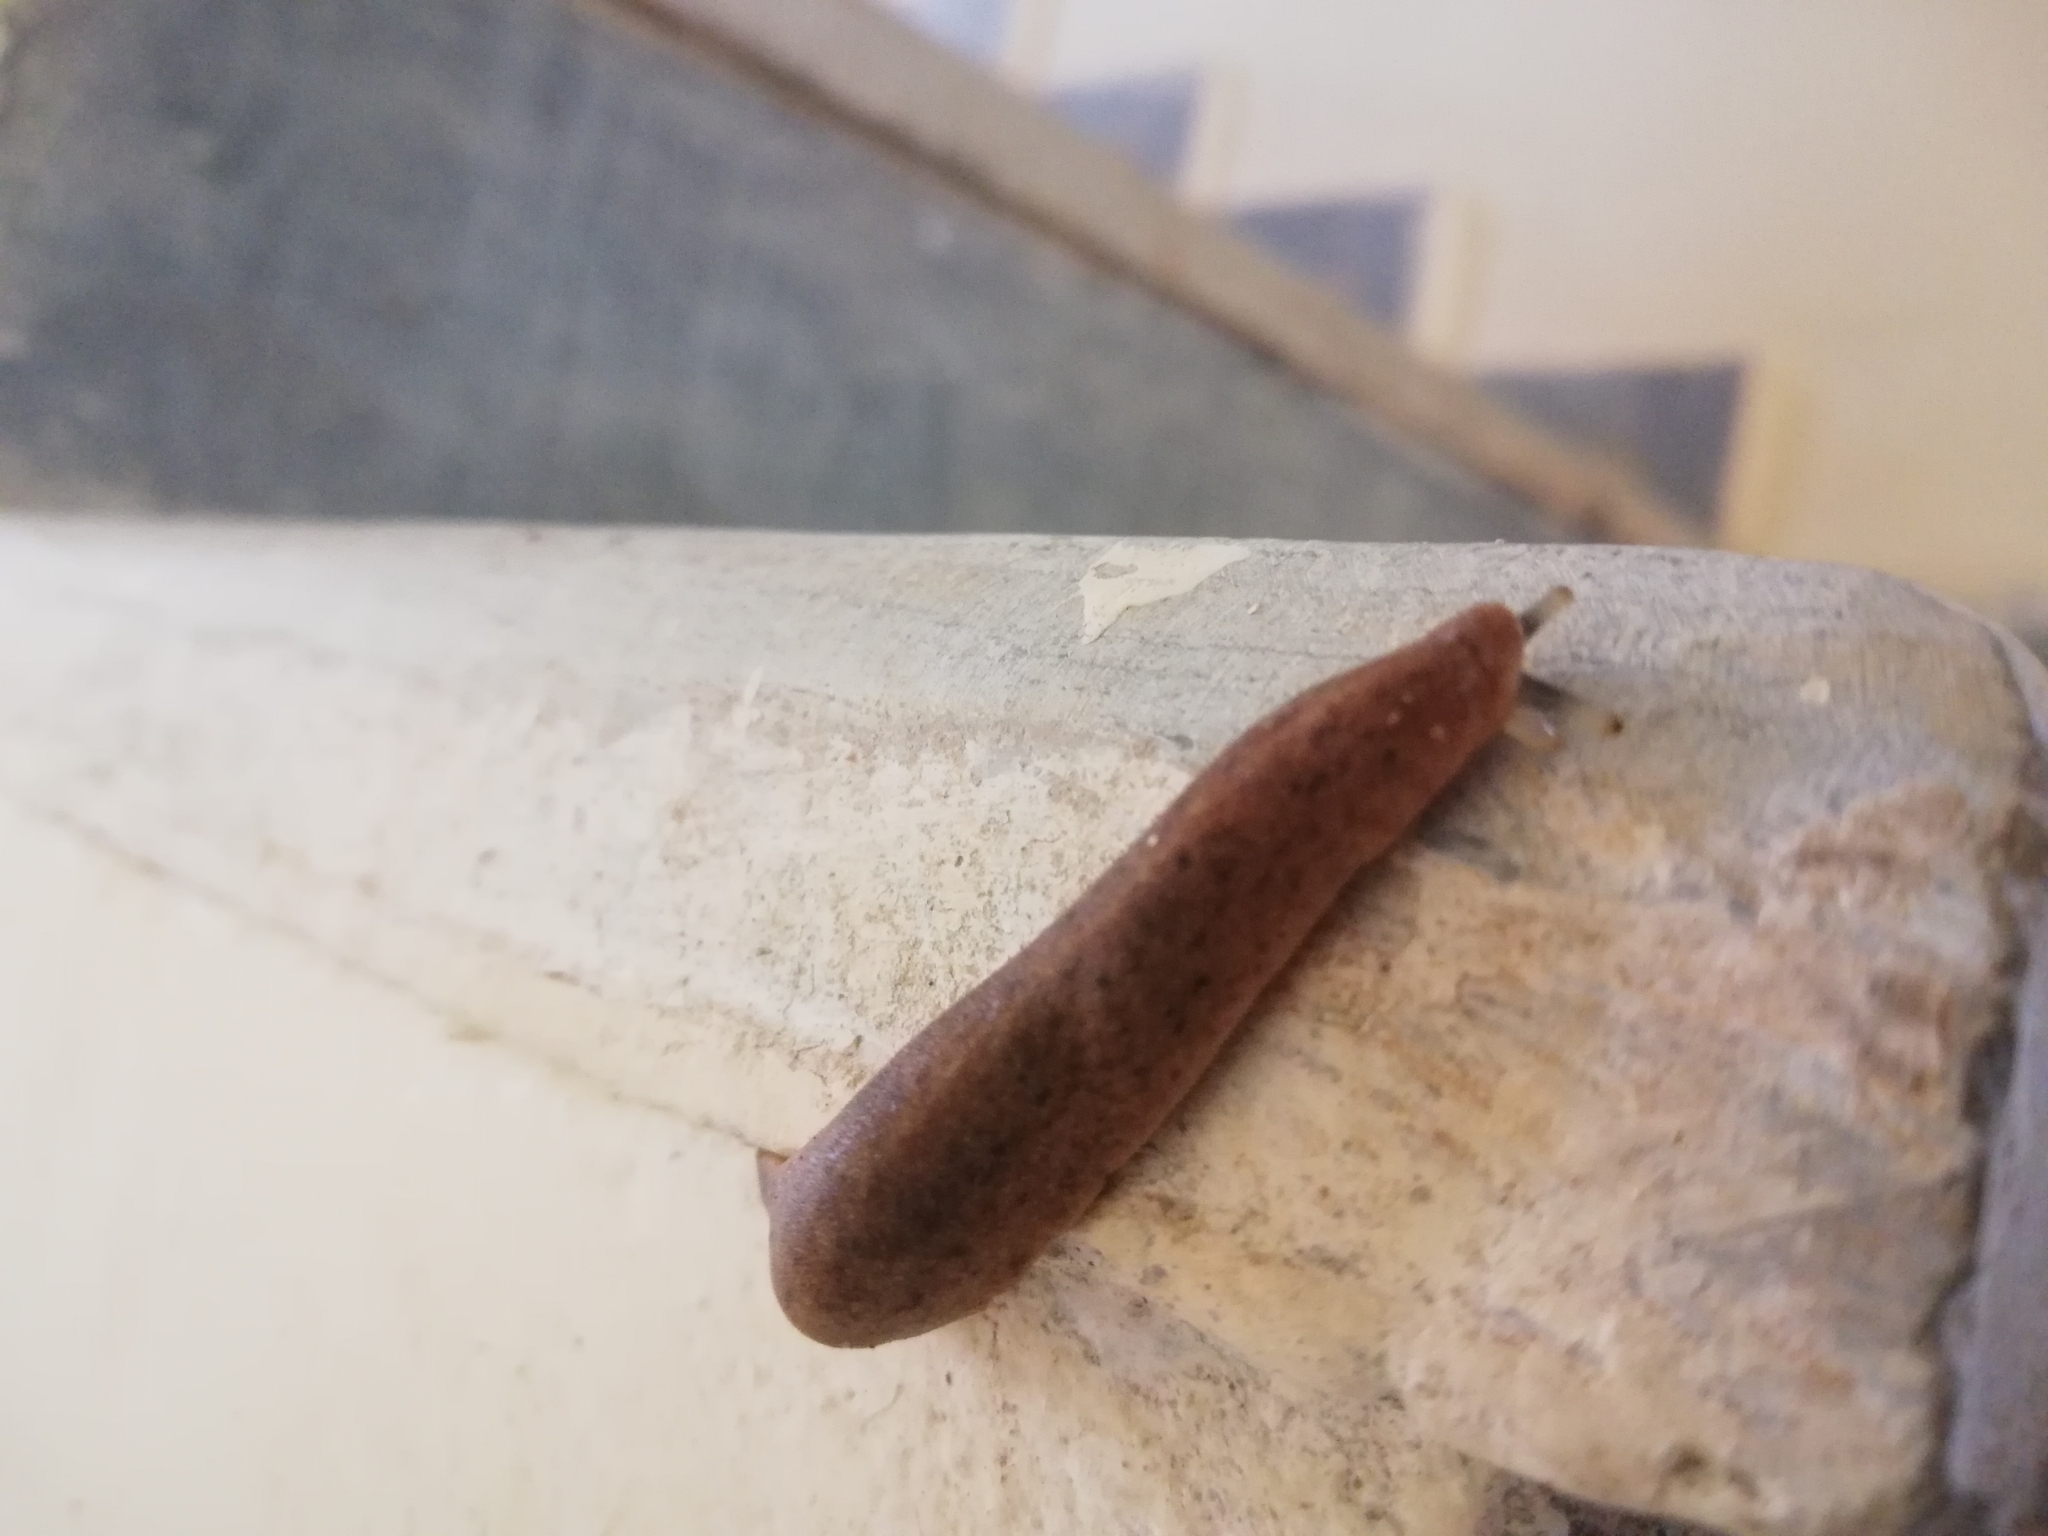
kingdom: Animalia
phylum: Mollusca
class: Gastropoda
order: Systellommatophora
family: Veronicellidae
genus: Laevicaulis
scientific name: Laevicaulis alte
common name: Tropical leatherleaf
